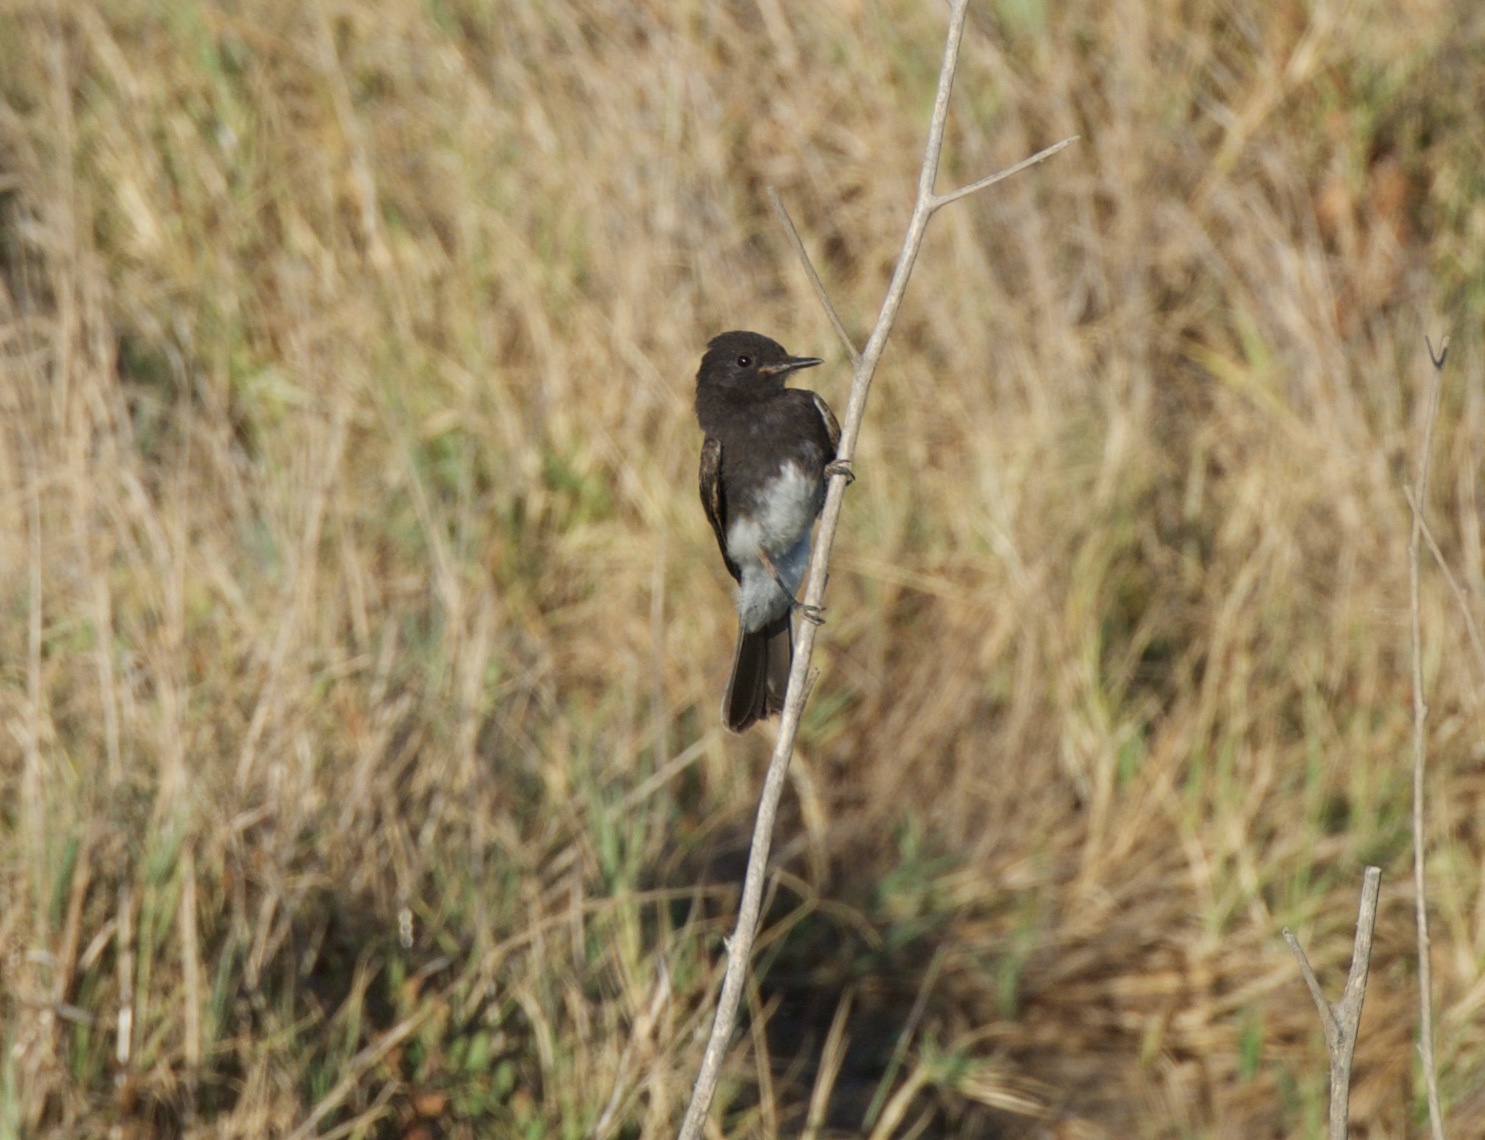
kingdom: Animalia
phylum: Chordata
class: Aves
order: Passeriformes
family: Tyrannidae
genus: Sayornis
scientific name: Sayornis nigricans
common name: Black phoebe
